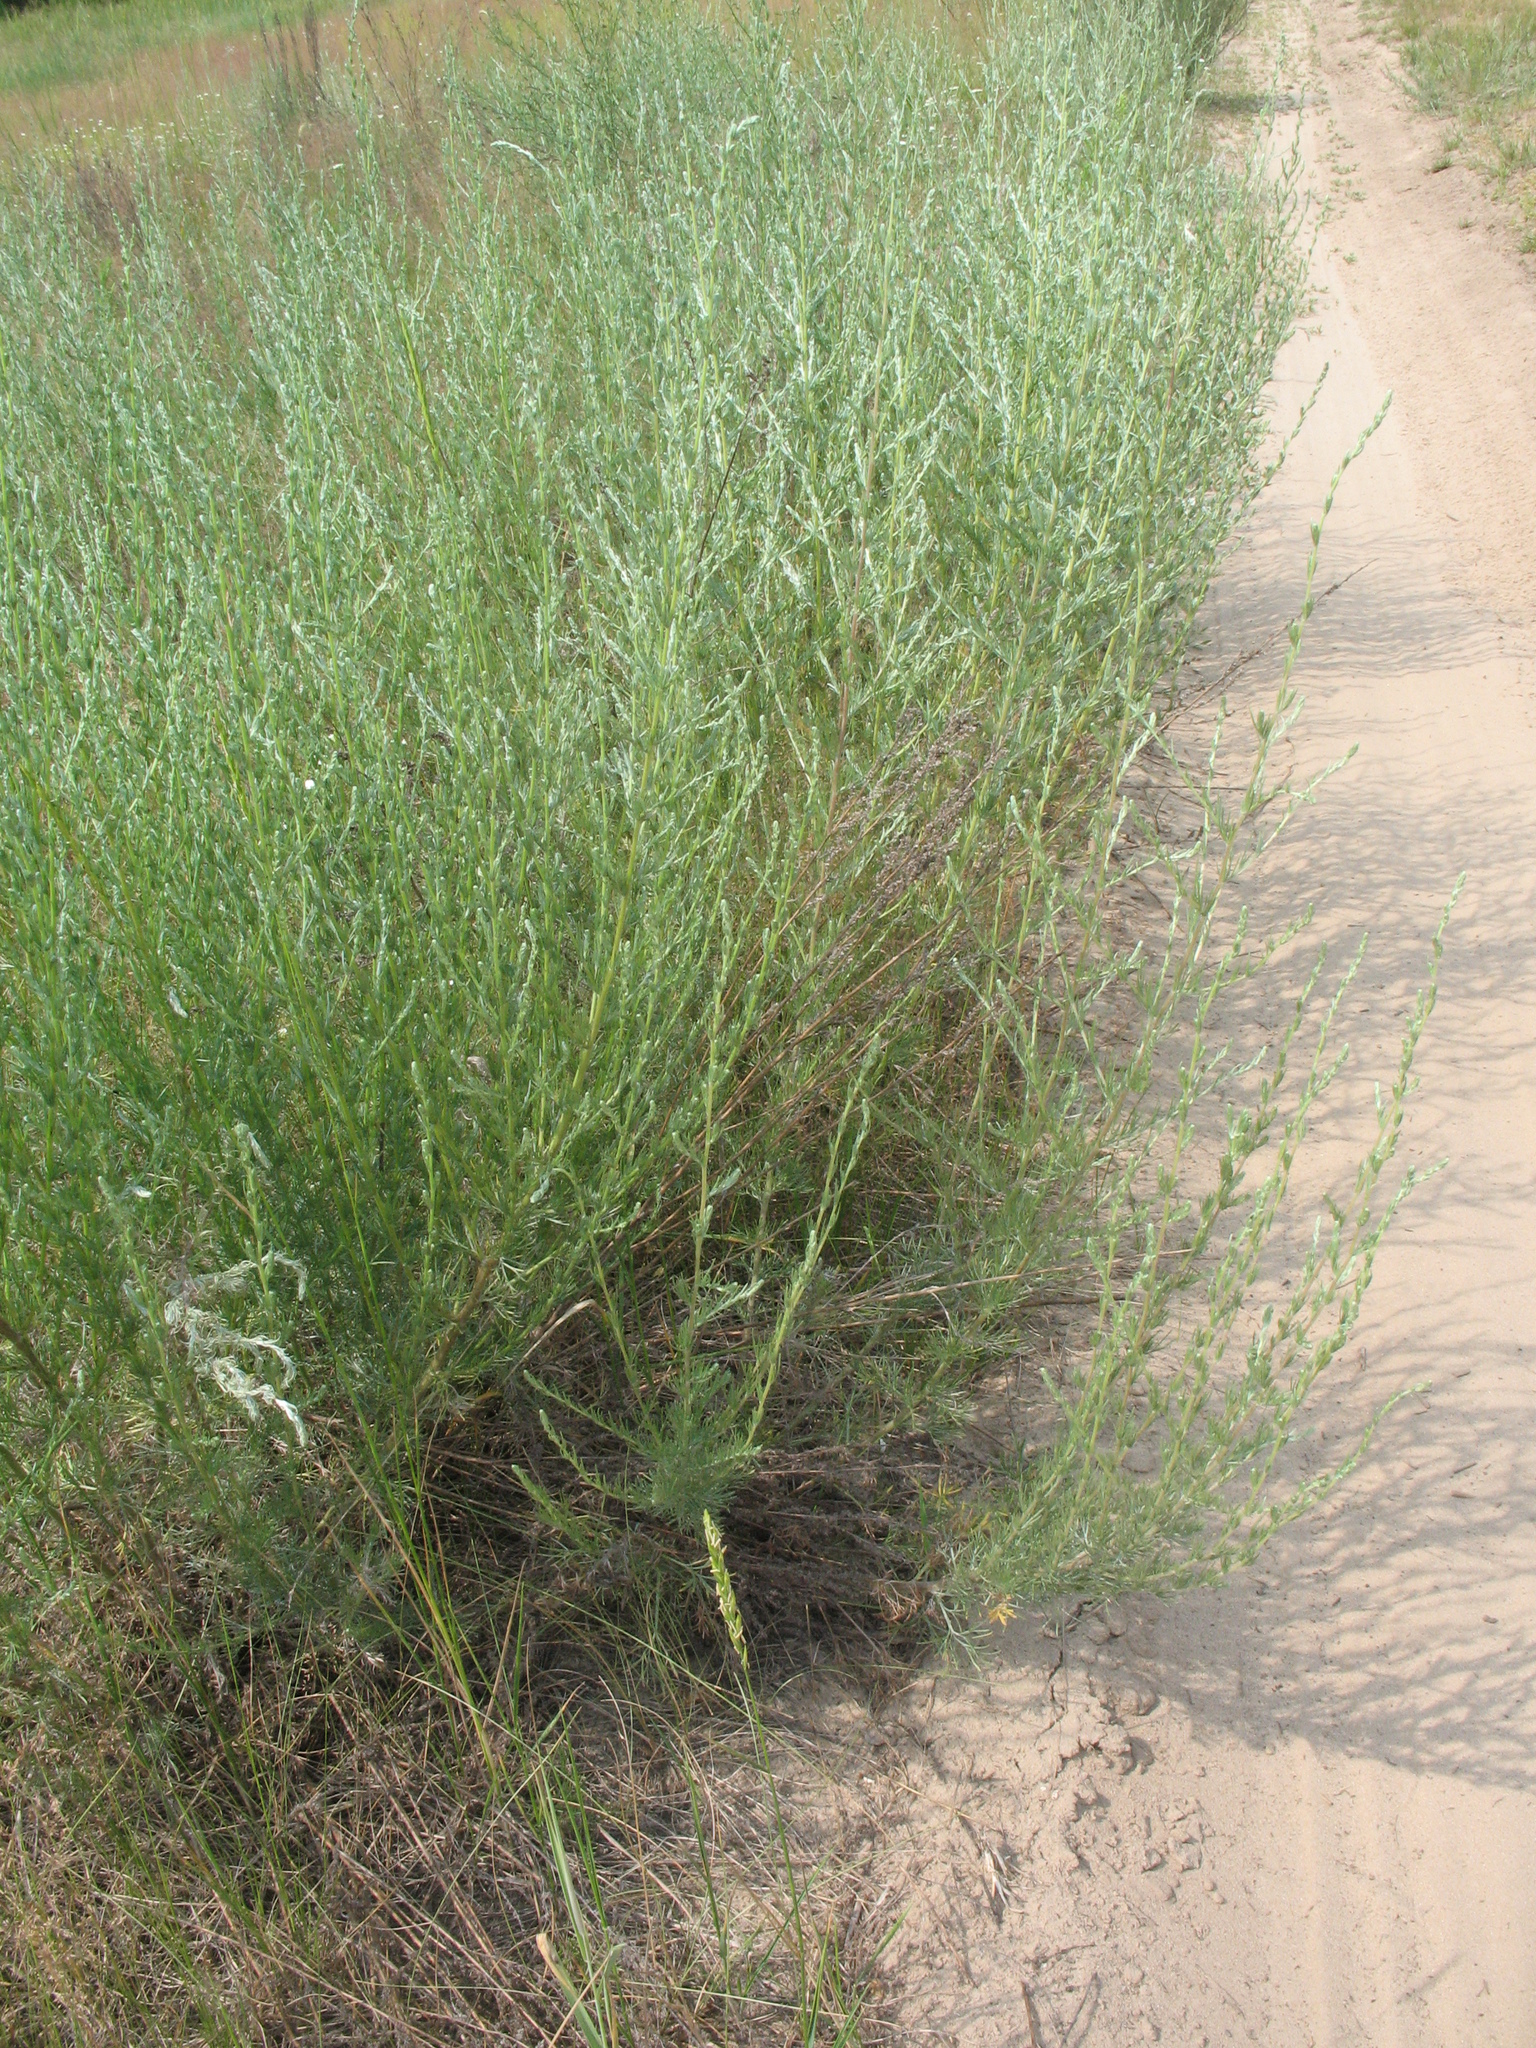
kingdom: Plantae
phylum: Tracheophyta
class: Magnoliopsida
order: Asterales
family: Asteraceae
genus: Artemisia
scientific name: Artemisia campestris
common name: Field wormwood
